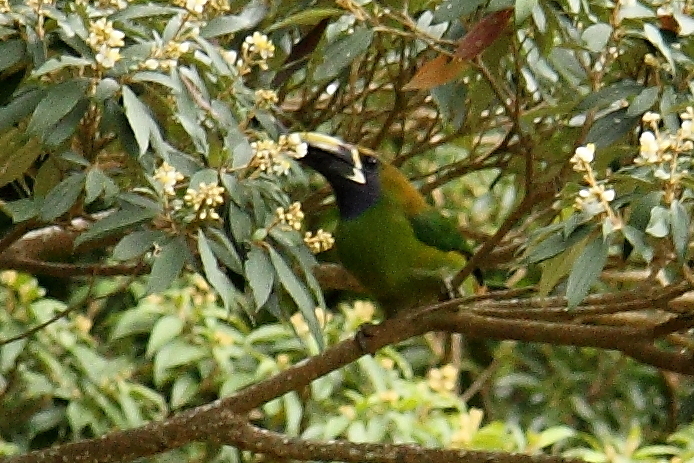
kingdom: Animalia
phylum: Chordata
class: Aves
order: Piciformes
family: Ramphastidae
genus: Aulacorhynchus
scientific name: Aulacorhynchus prasinus
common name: Emerald toucanet
